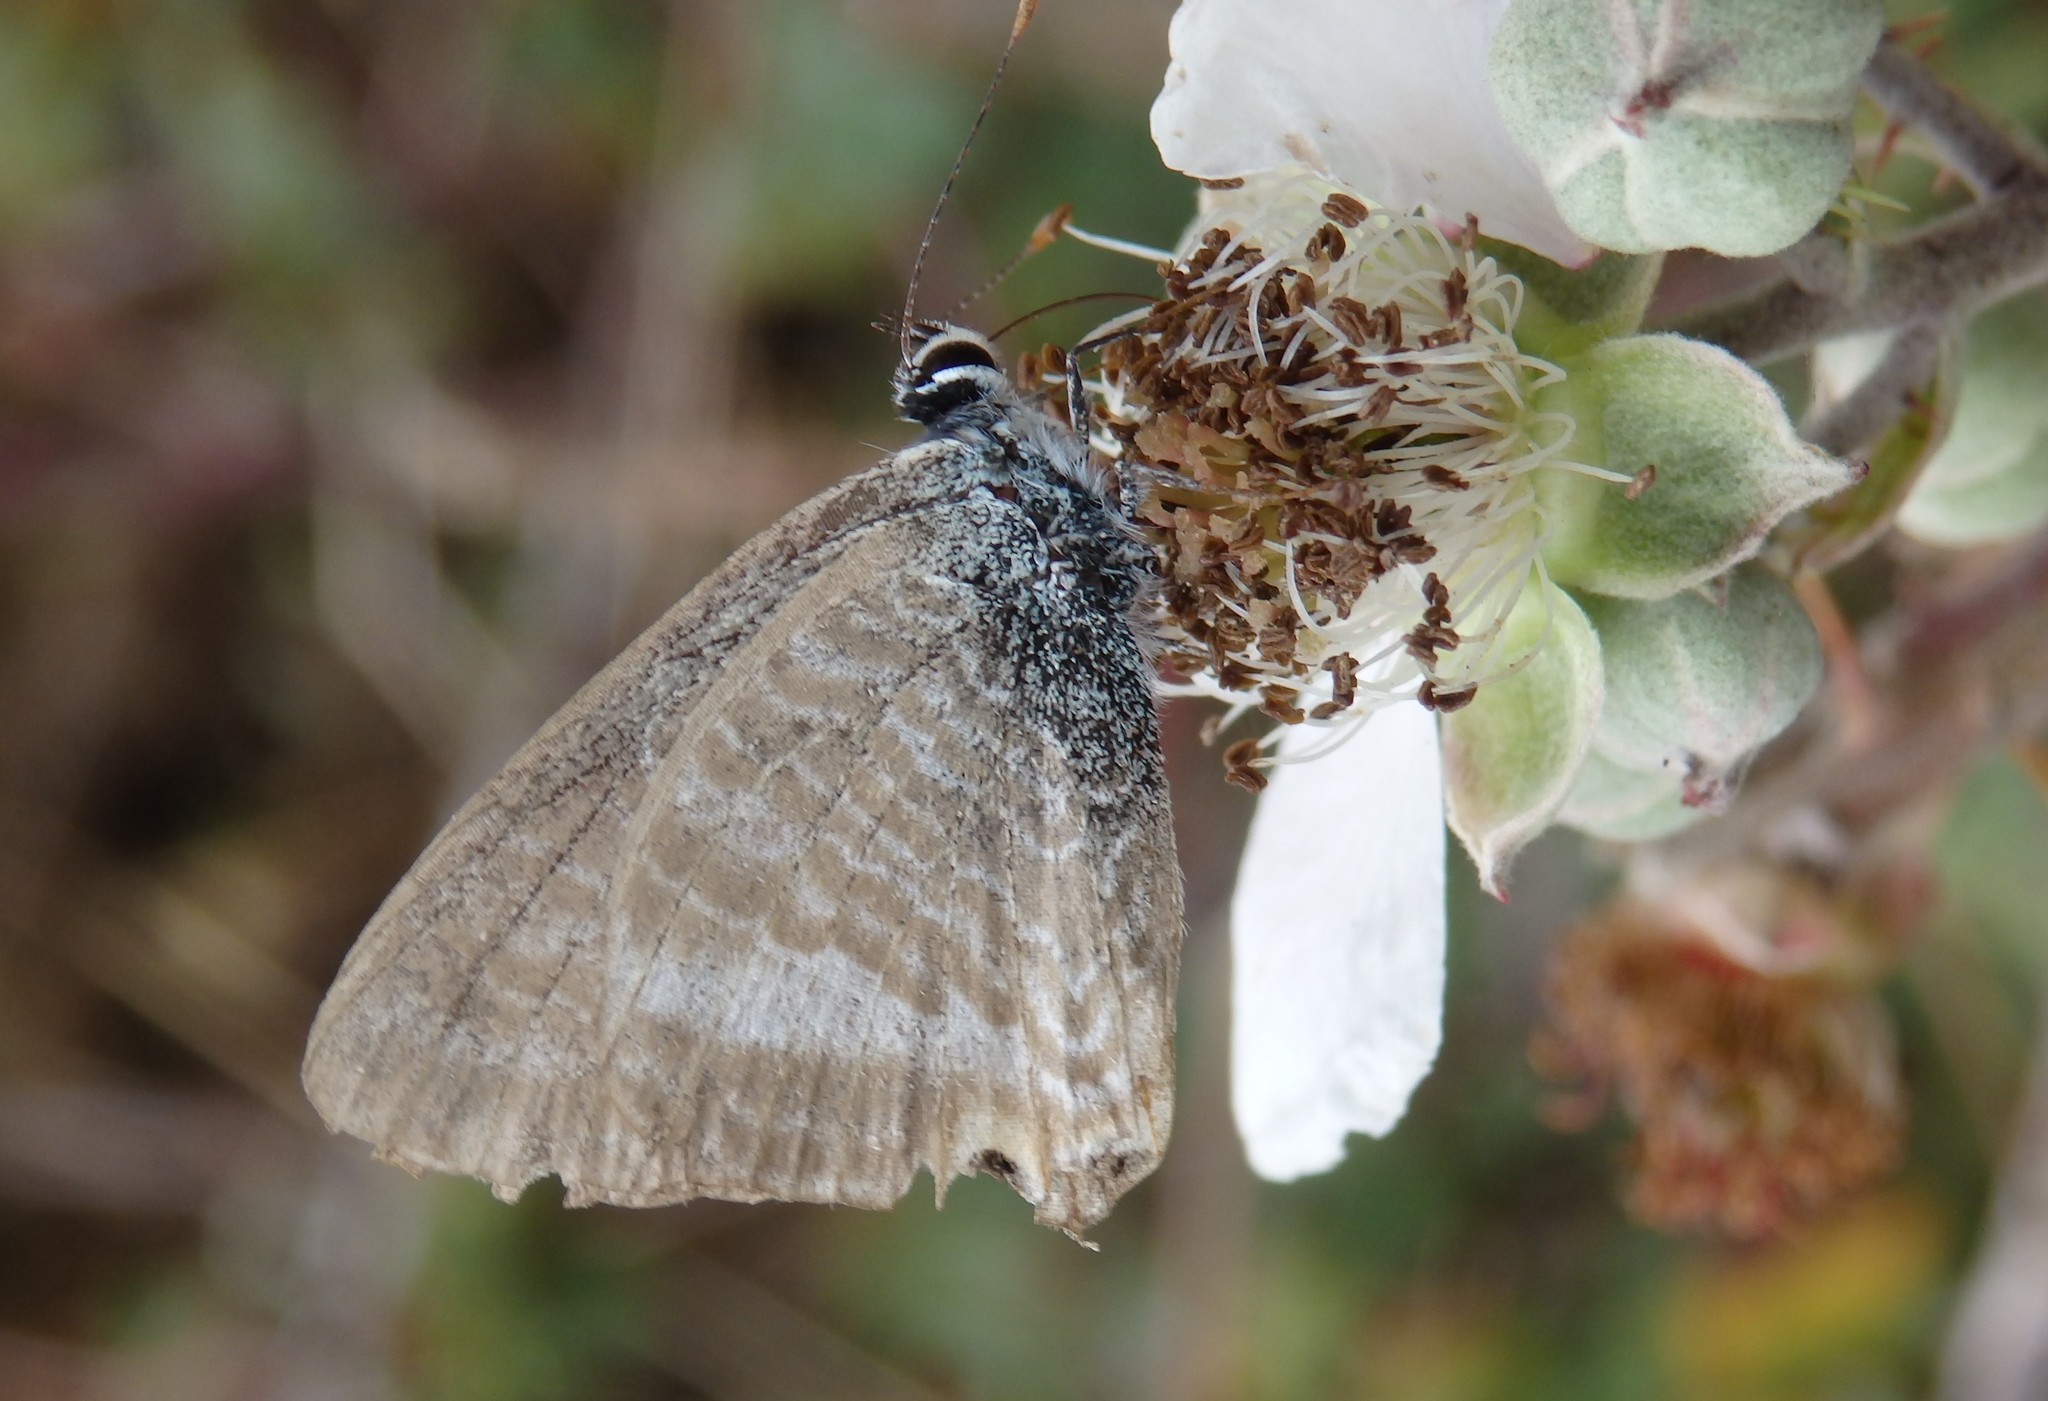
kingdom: Animalia
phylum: Arthropoda
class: Insecta
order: Lepidoptera
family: Lycaenidae
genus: Lampides
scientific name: Lampides boeticus
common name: Long-tailed blue
